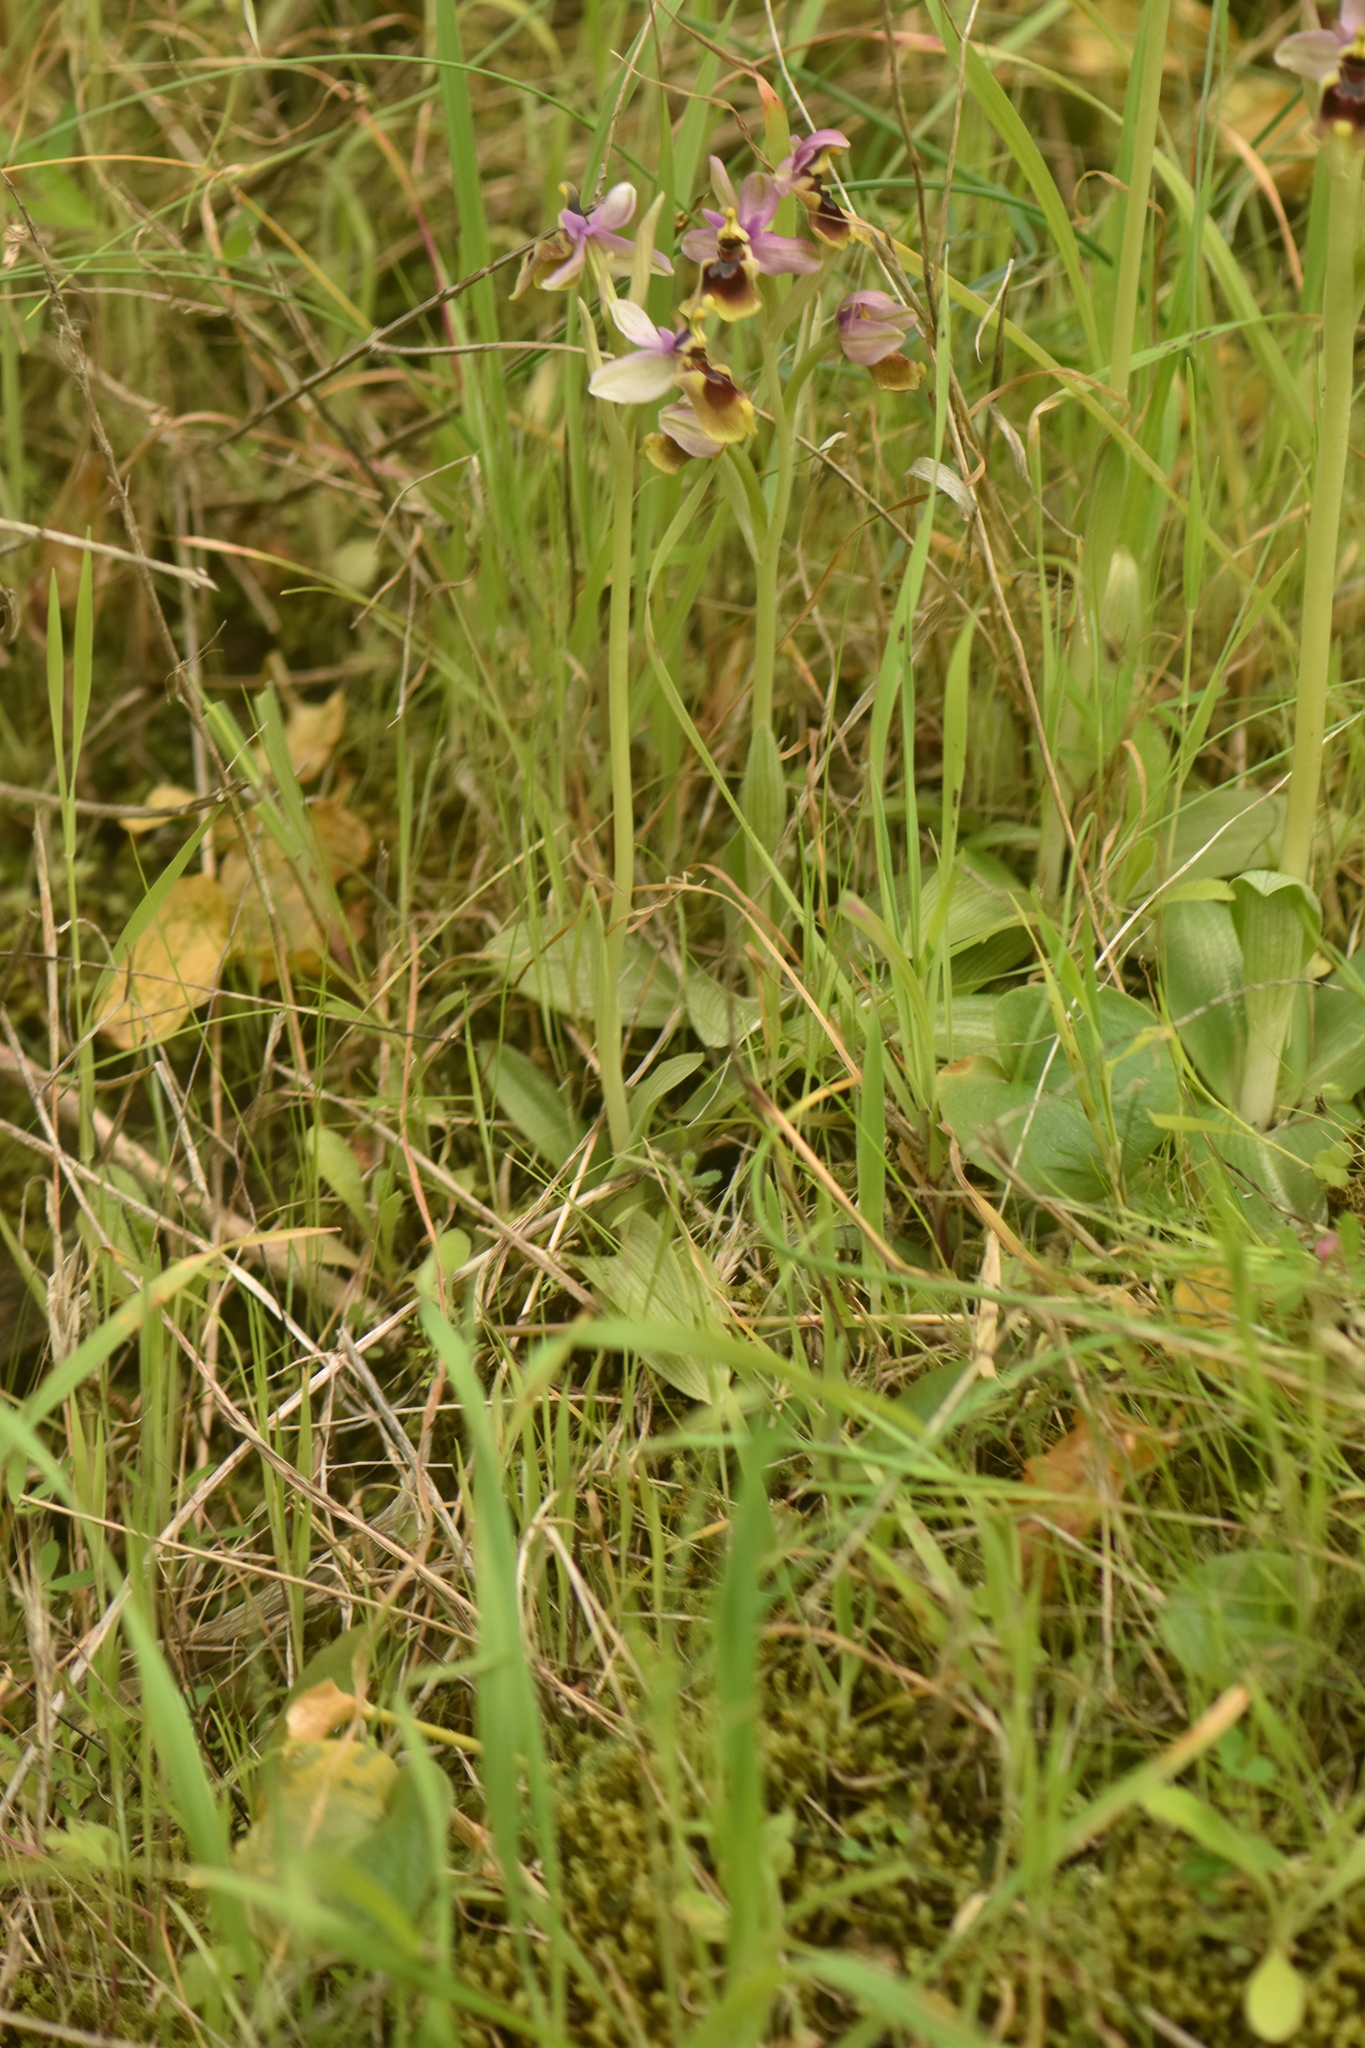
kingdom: Plantae
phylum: Tracheophyta
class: Liliopsida
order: Asparagales
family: Orchidaceae
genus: Ophrys
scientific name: Ophrys tenthredinifera
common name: Sawfly orchid
